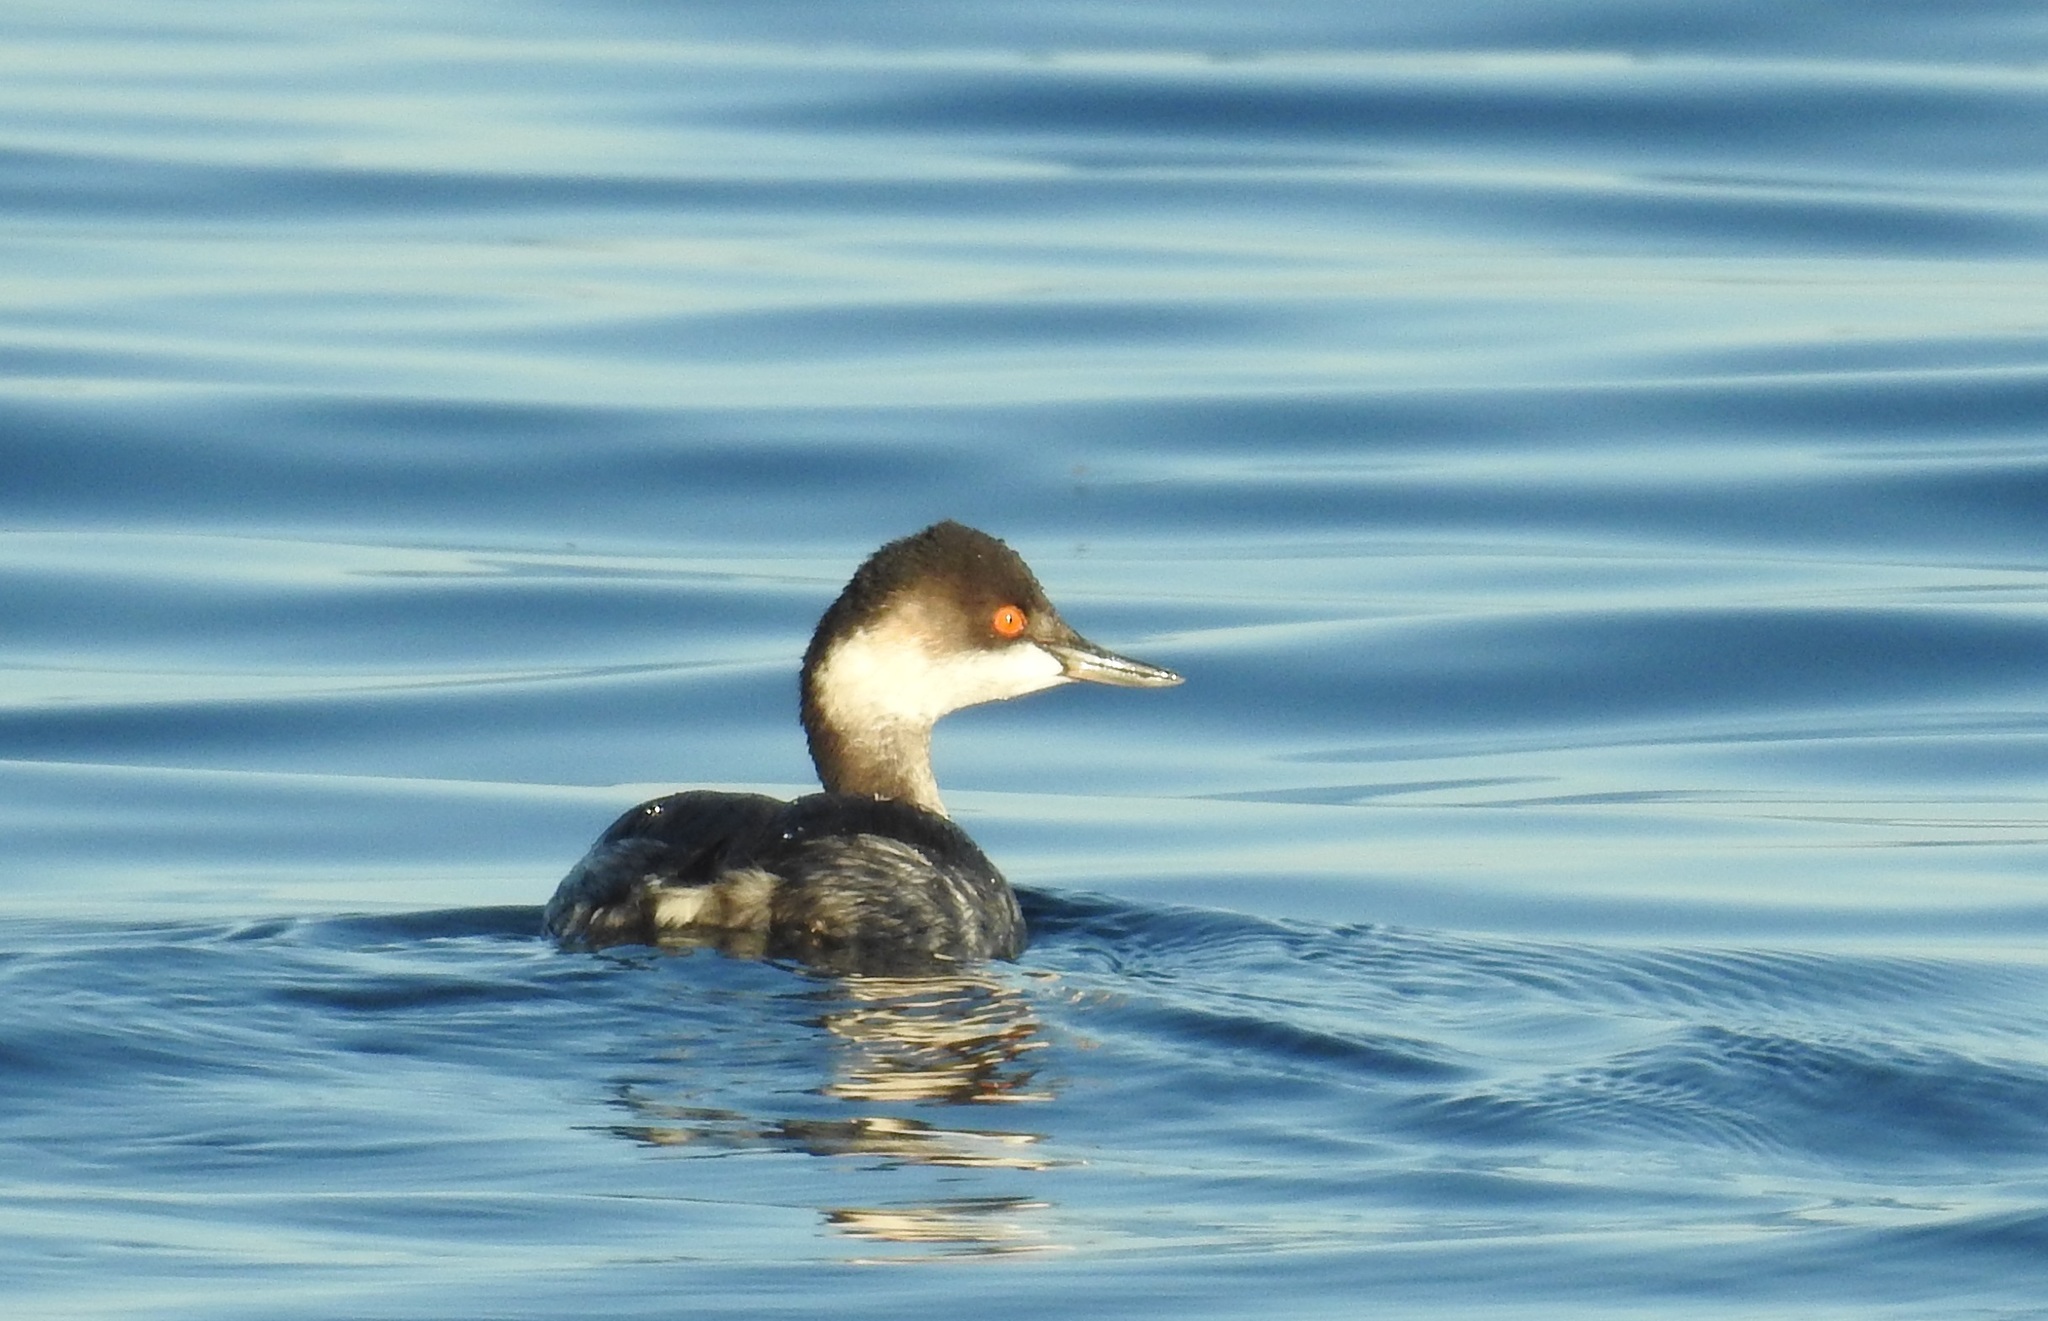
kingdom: Animalia
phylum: Chordata
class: Aves
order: Podicipediformes
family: Podicipedidae
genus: Podiceps
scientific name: Podiceps nigricollis
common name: Black-necked grebe
